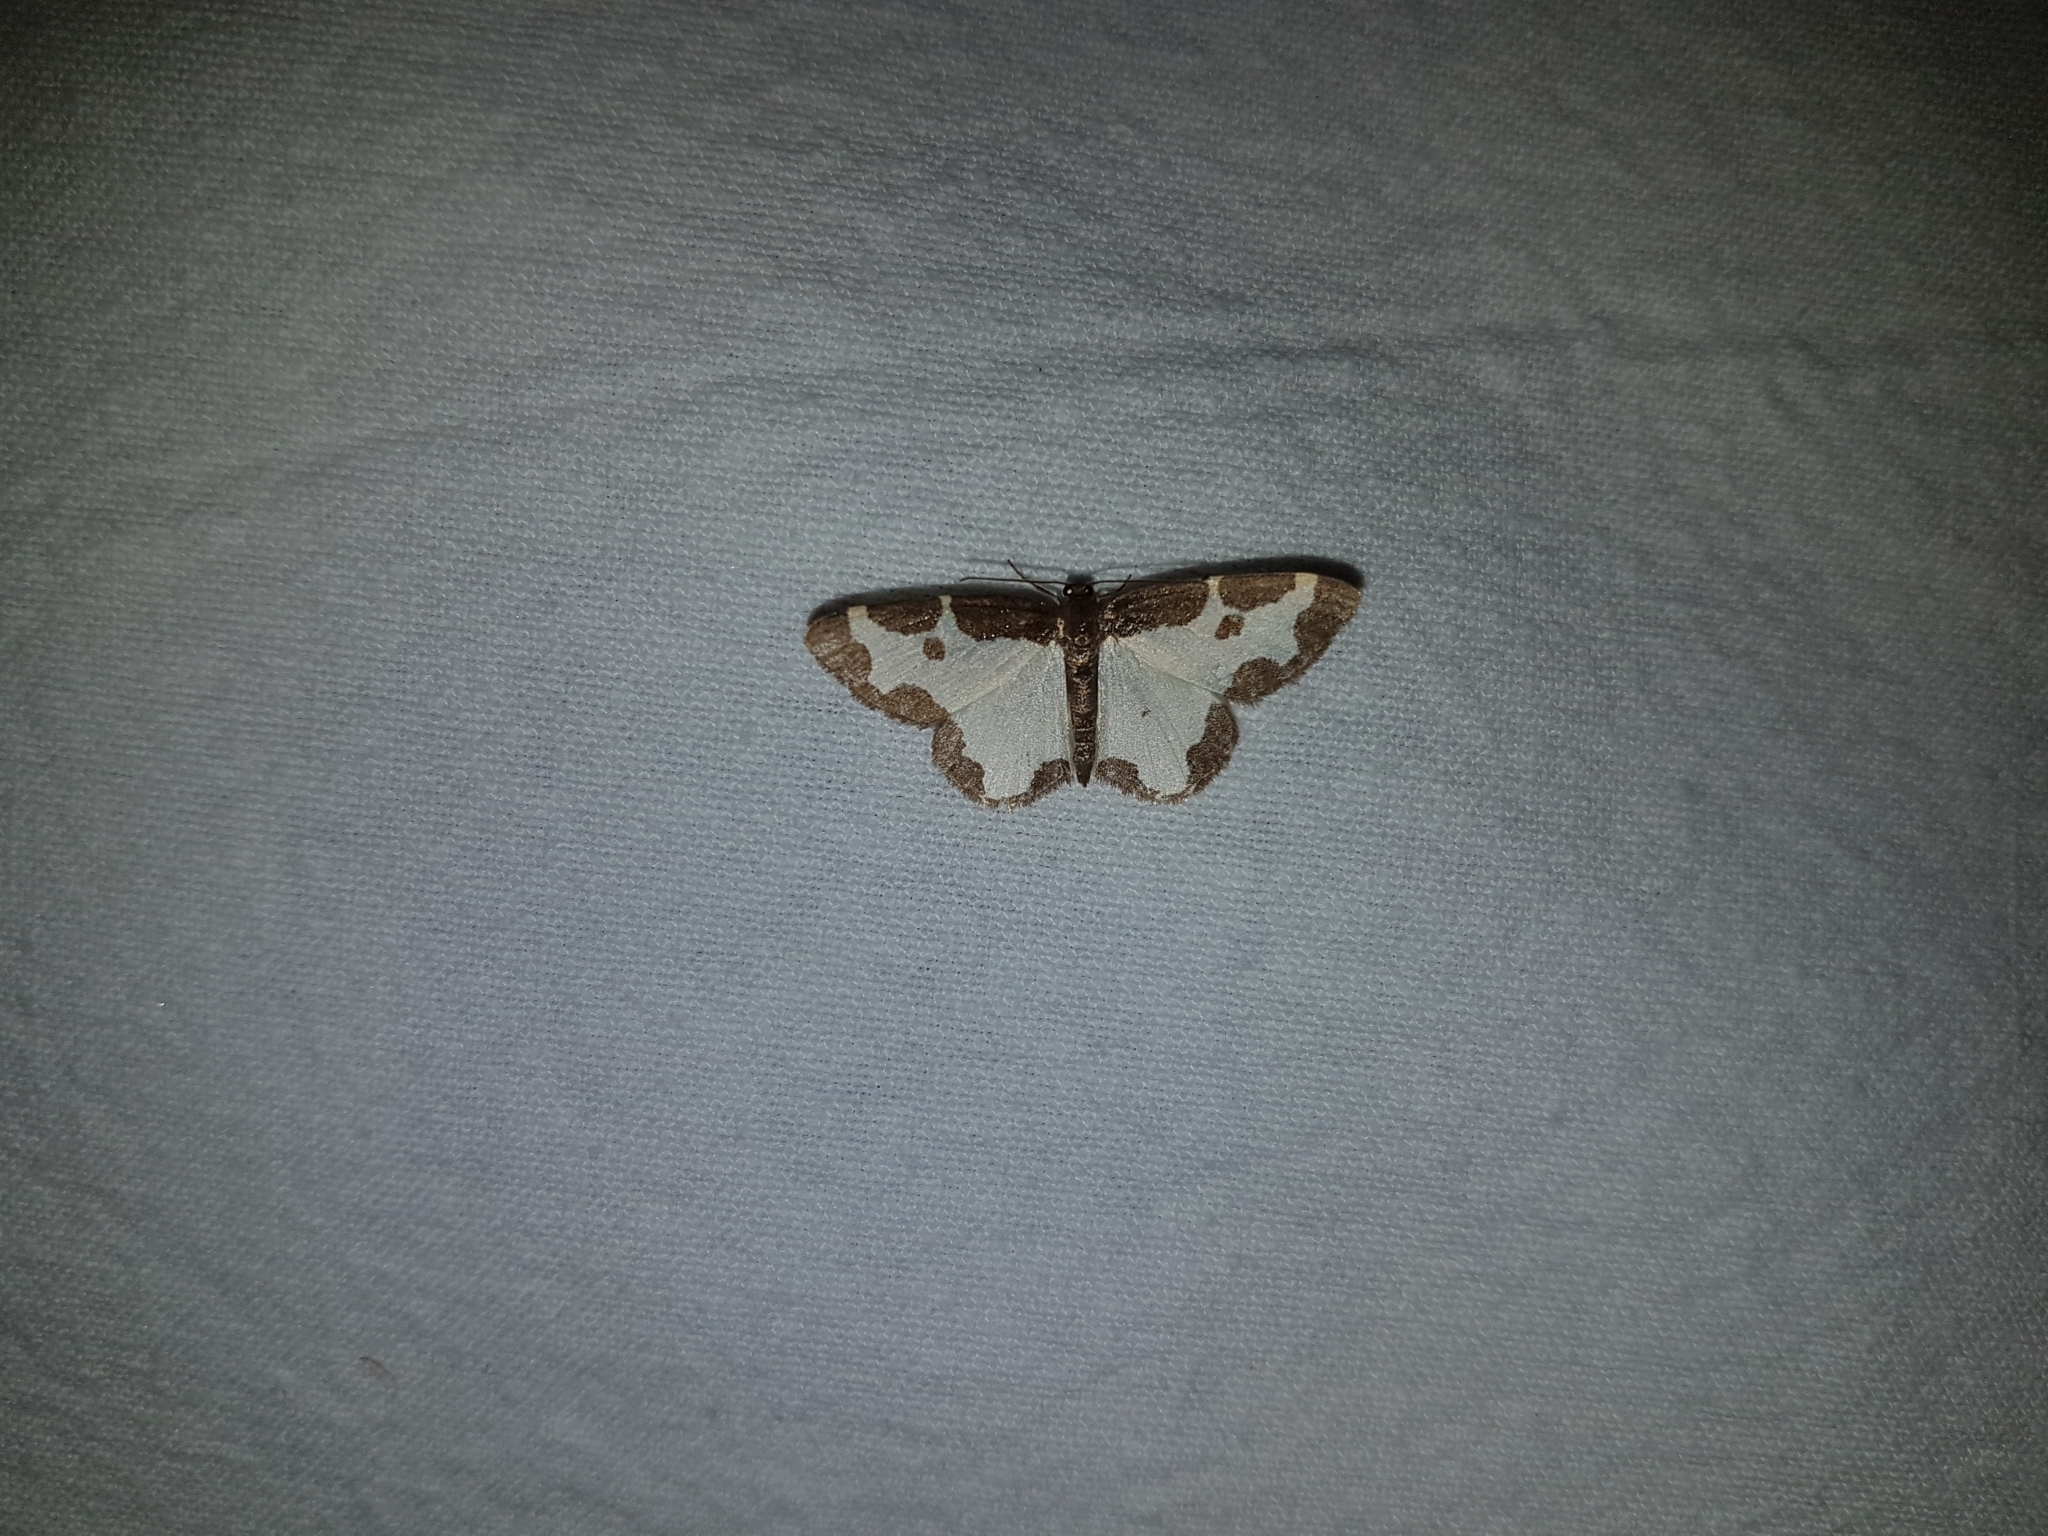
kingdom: Animalia
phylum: Arthropoda
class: Insecta
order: Lepidoptera
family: Geometridae
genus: Lomaspilis
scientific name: Lomaspilis marginata
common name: Clouded border
